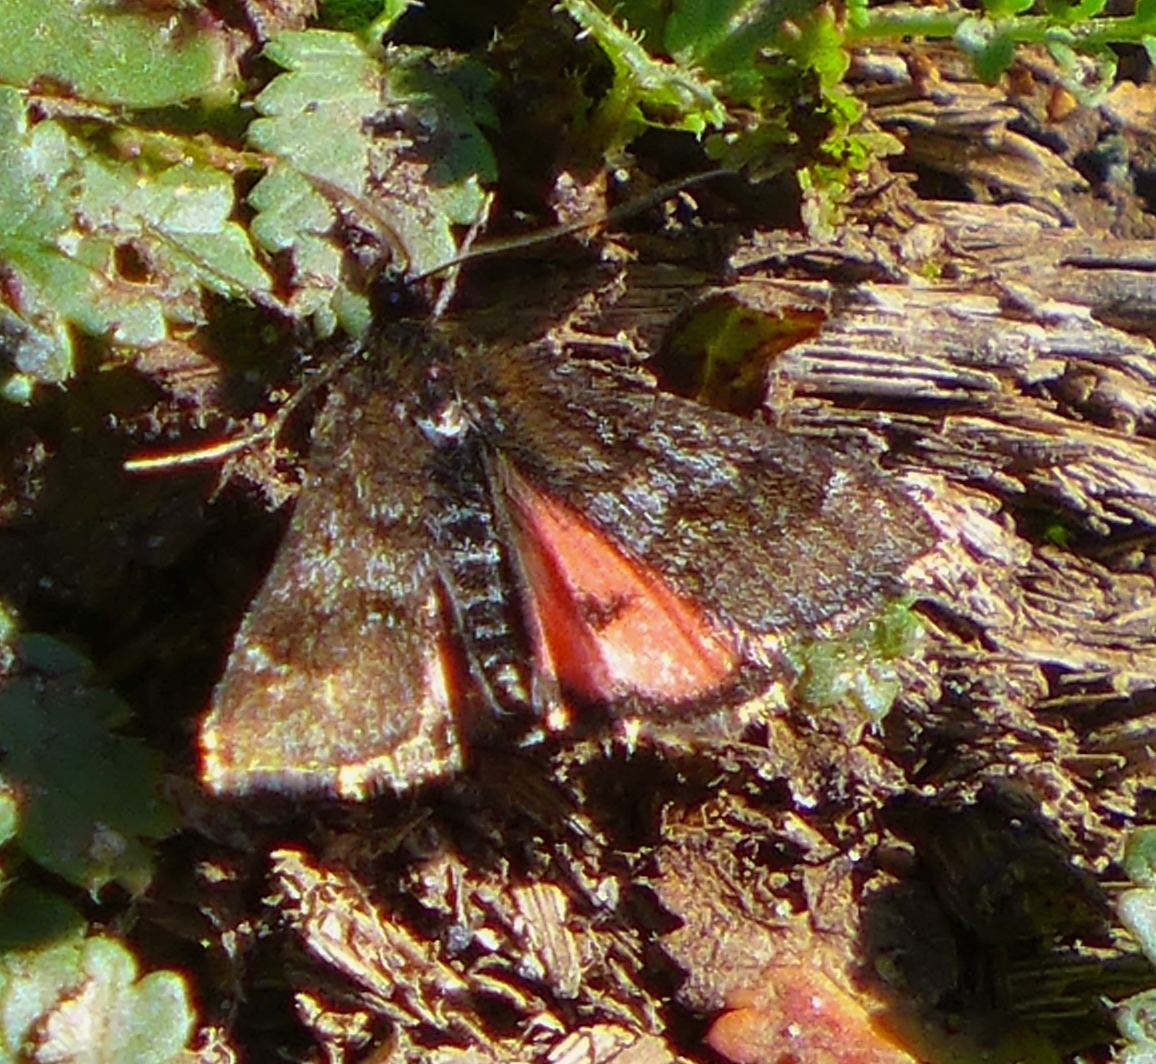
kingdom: Animalia
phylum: Arthropoda
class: Insecta
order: Lepidoptera
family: Crambidae
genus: Pyrausta
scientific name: Pyrausta dapalis
